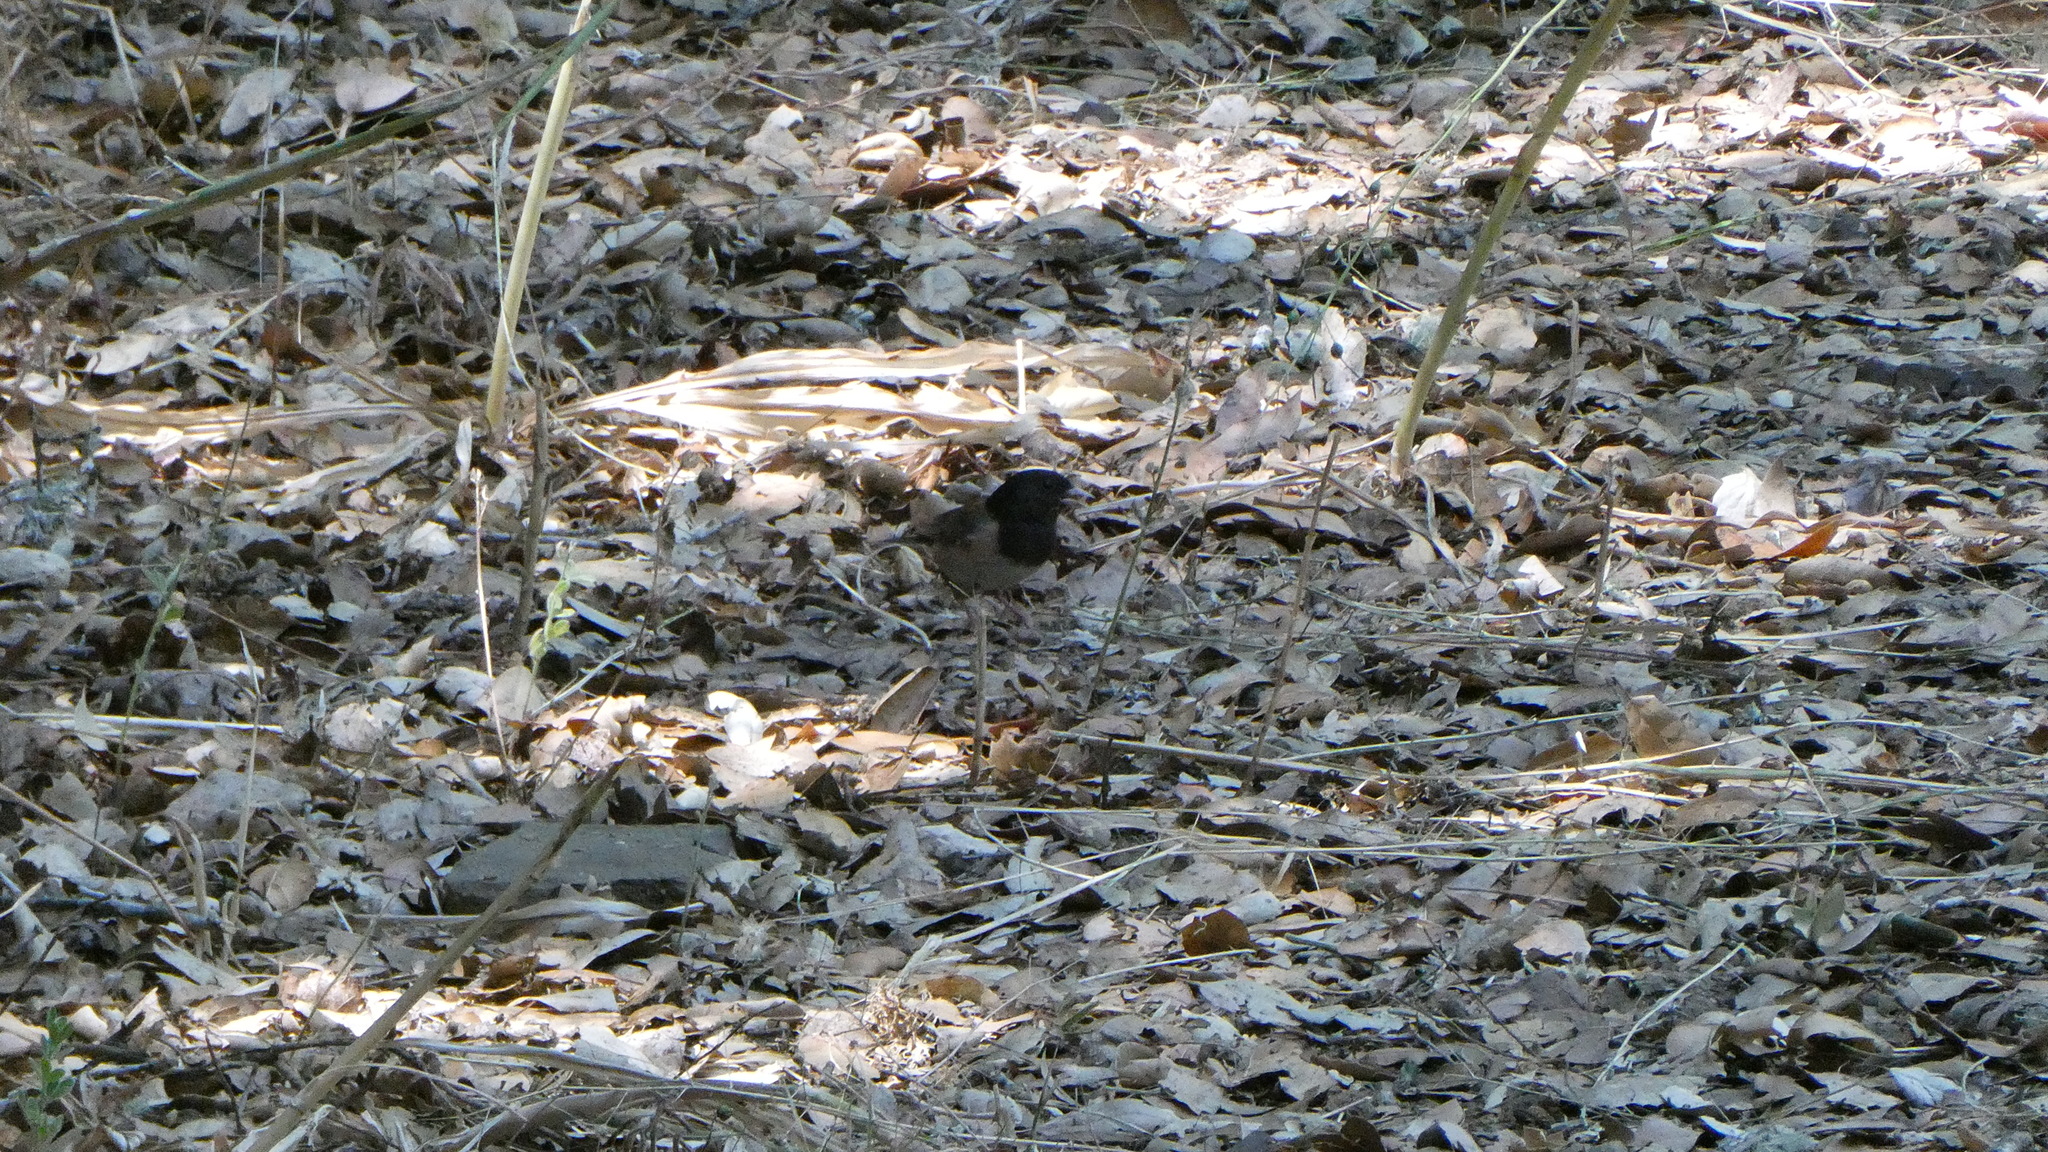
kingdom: Animalia
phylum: Chordata
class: Aves
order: Passeriformes
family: Passerellidae
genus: Junco
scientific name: Junco hyemalis
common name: Dark-eyed junco
